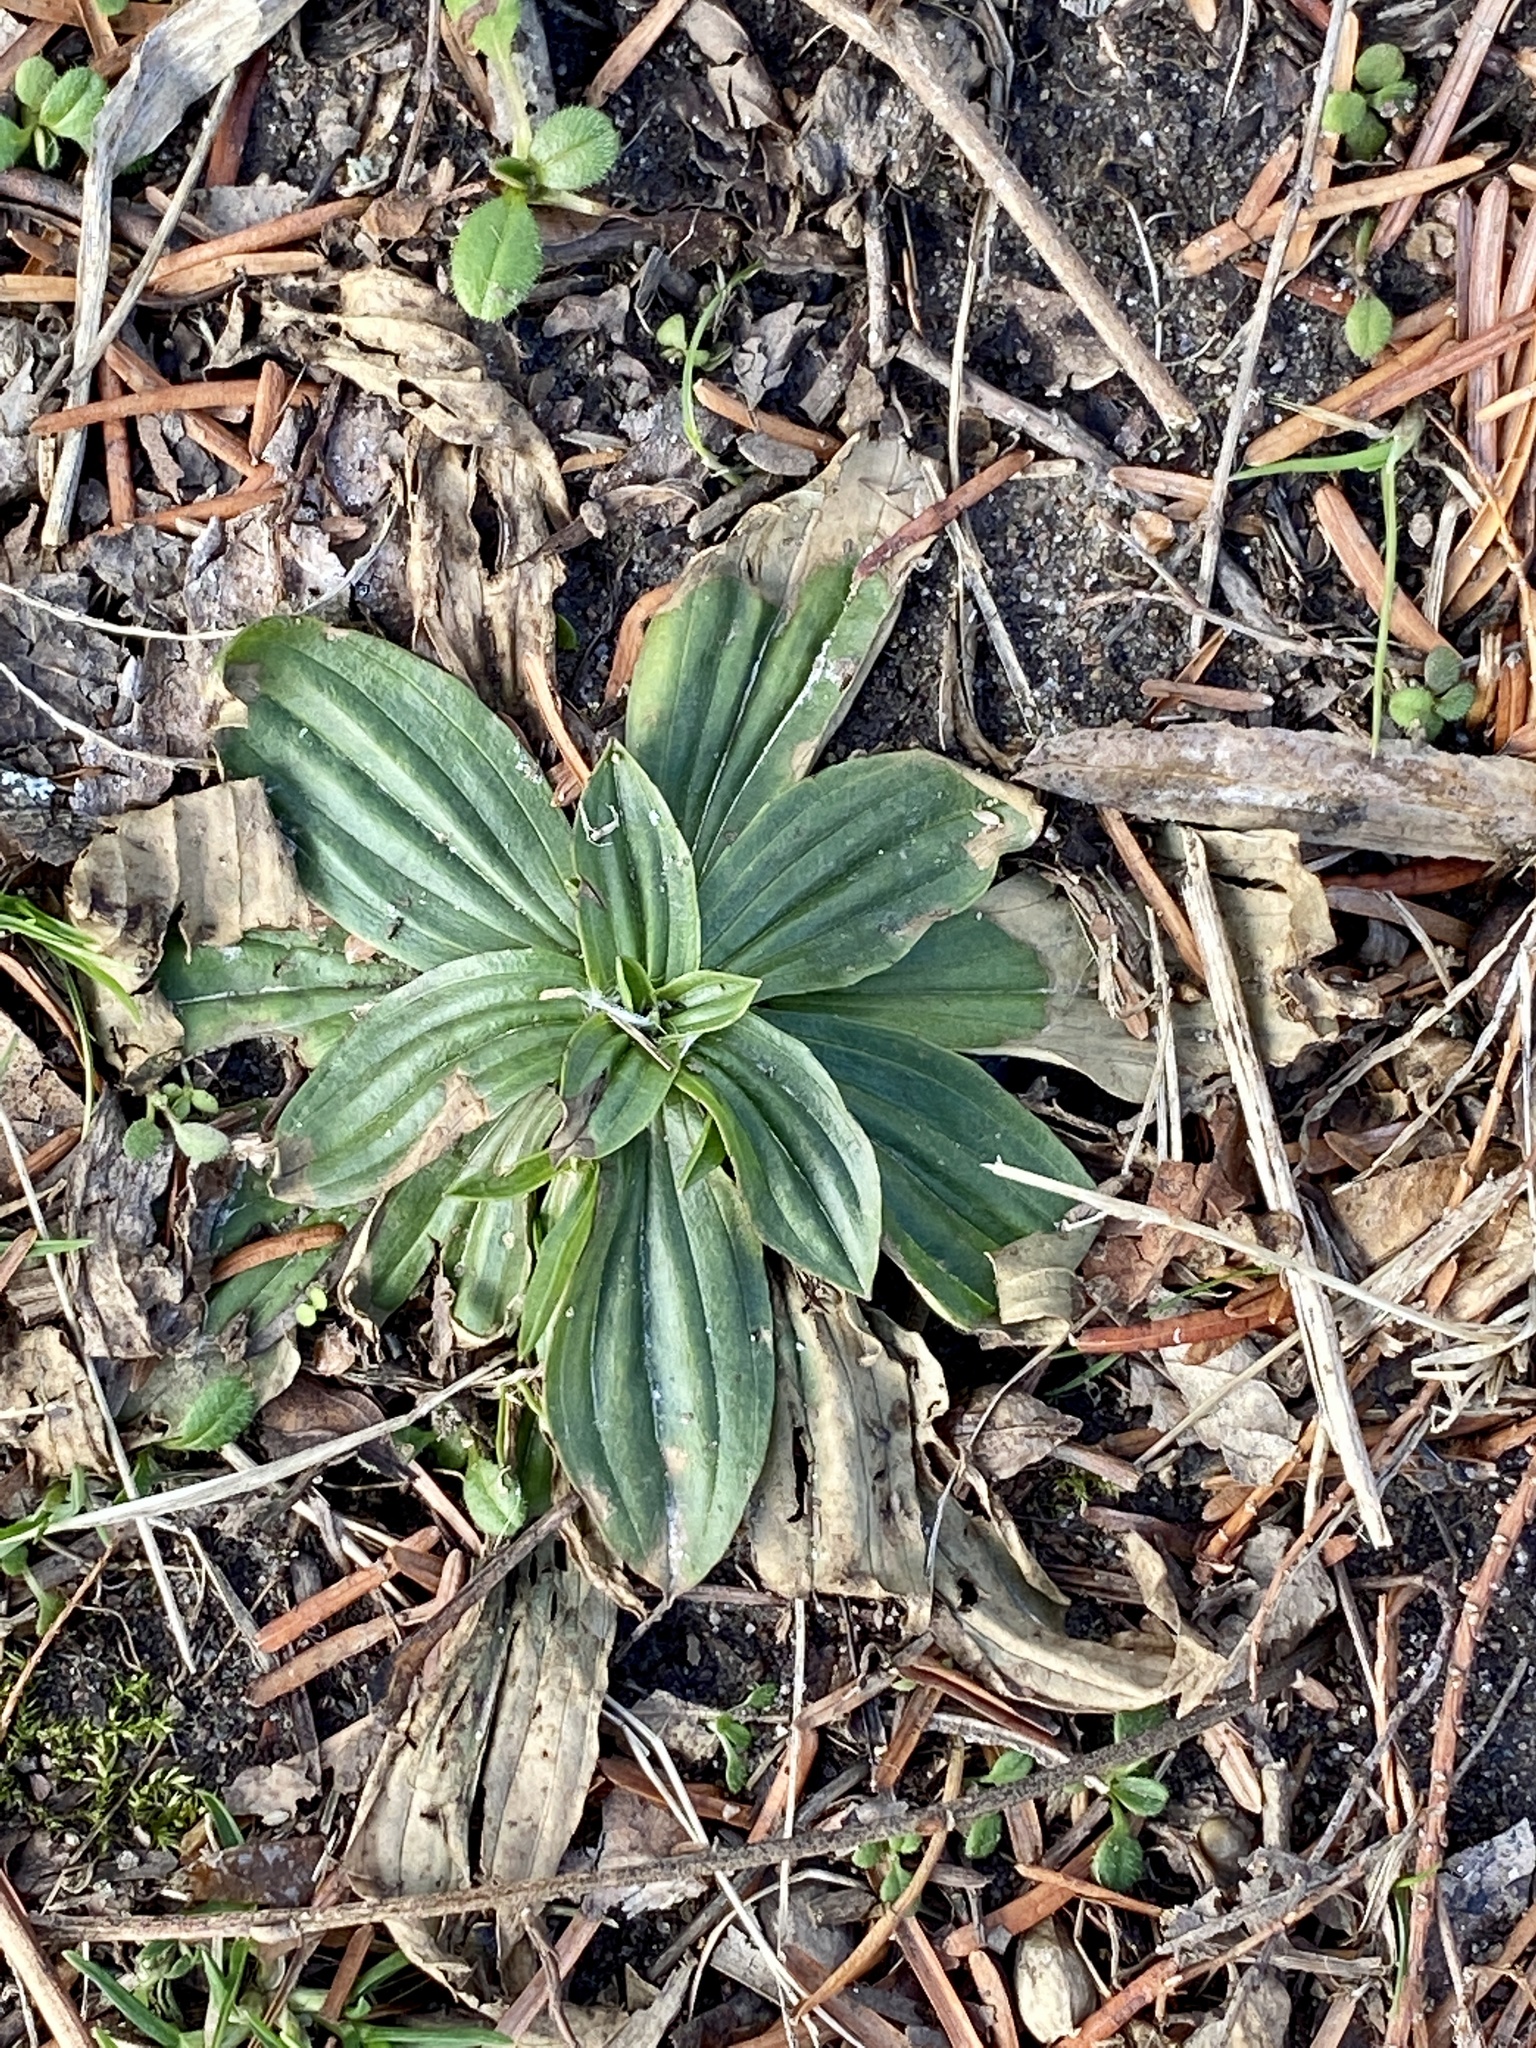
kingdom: Plantae
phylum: Tracheophyta
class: Magnoliopsida
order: Lamiales
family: Plantaginaceae
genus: Plantago
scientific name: Plantago lanceolata
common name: Ribwort plantain
